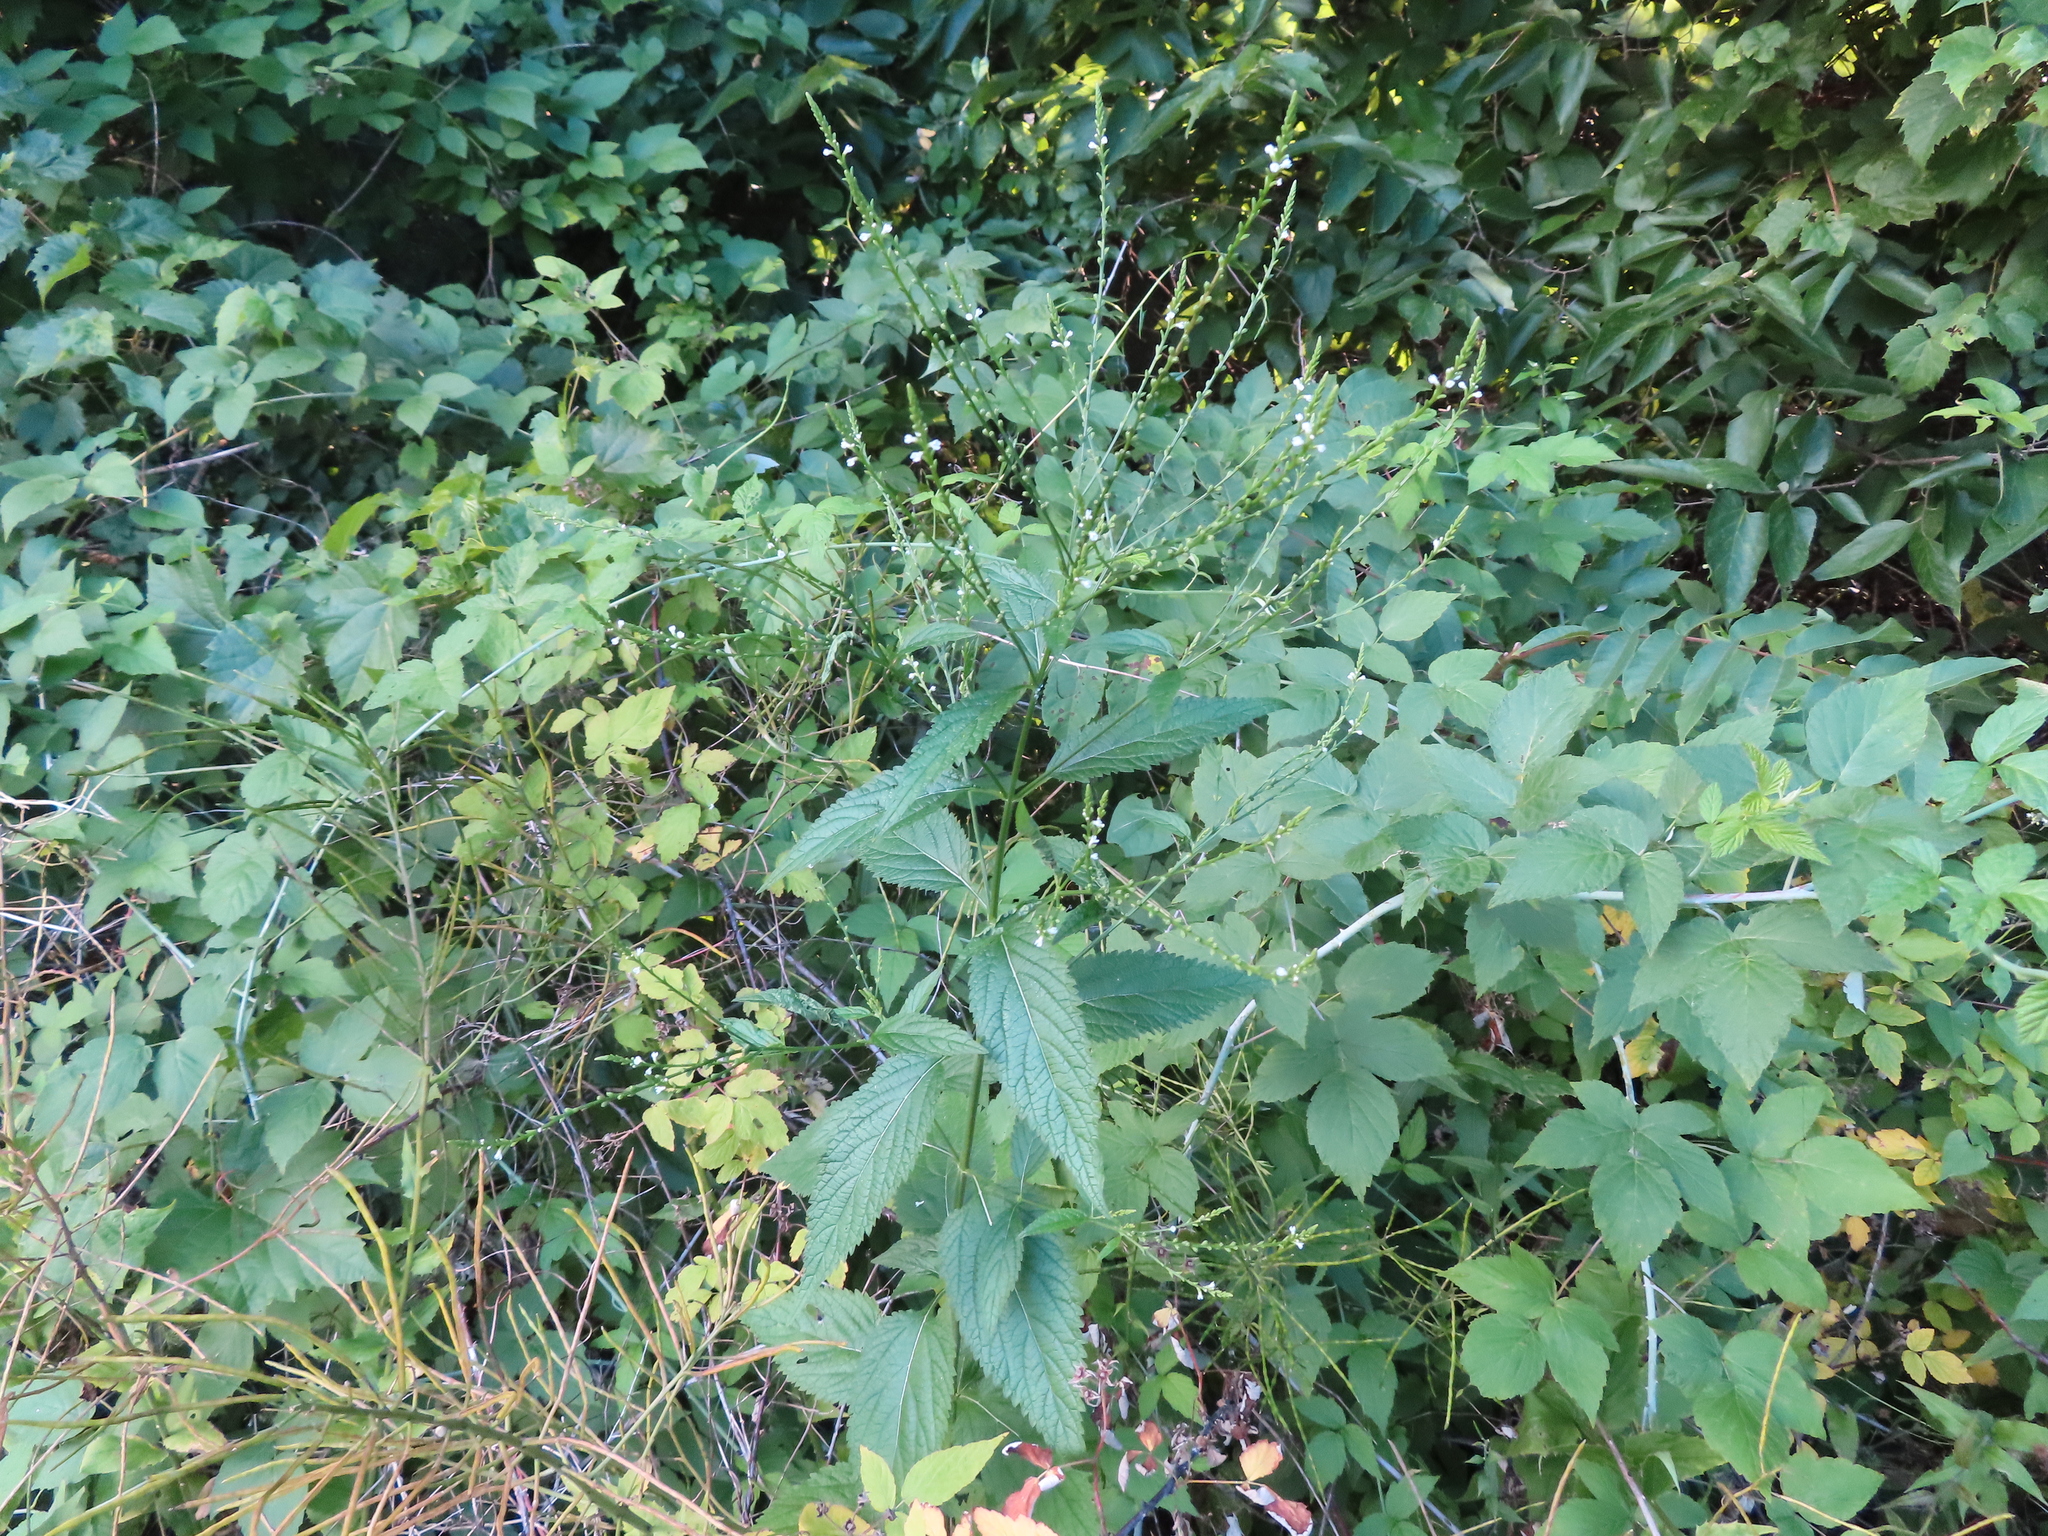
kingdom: Plantae
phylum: Tracheophyta
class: Magnoliopsida
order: Lamiales
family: Verbenaceae
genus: Verbena
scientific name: Verbena urticifolia
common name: Nettle-leaved vervain
